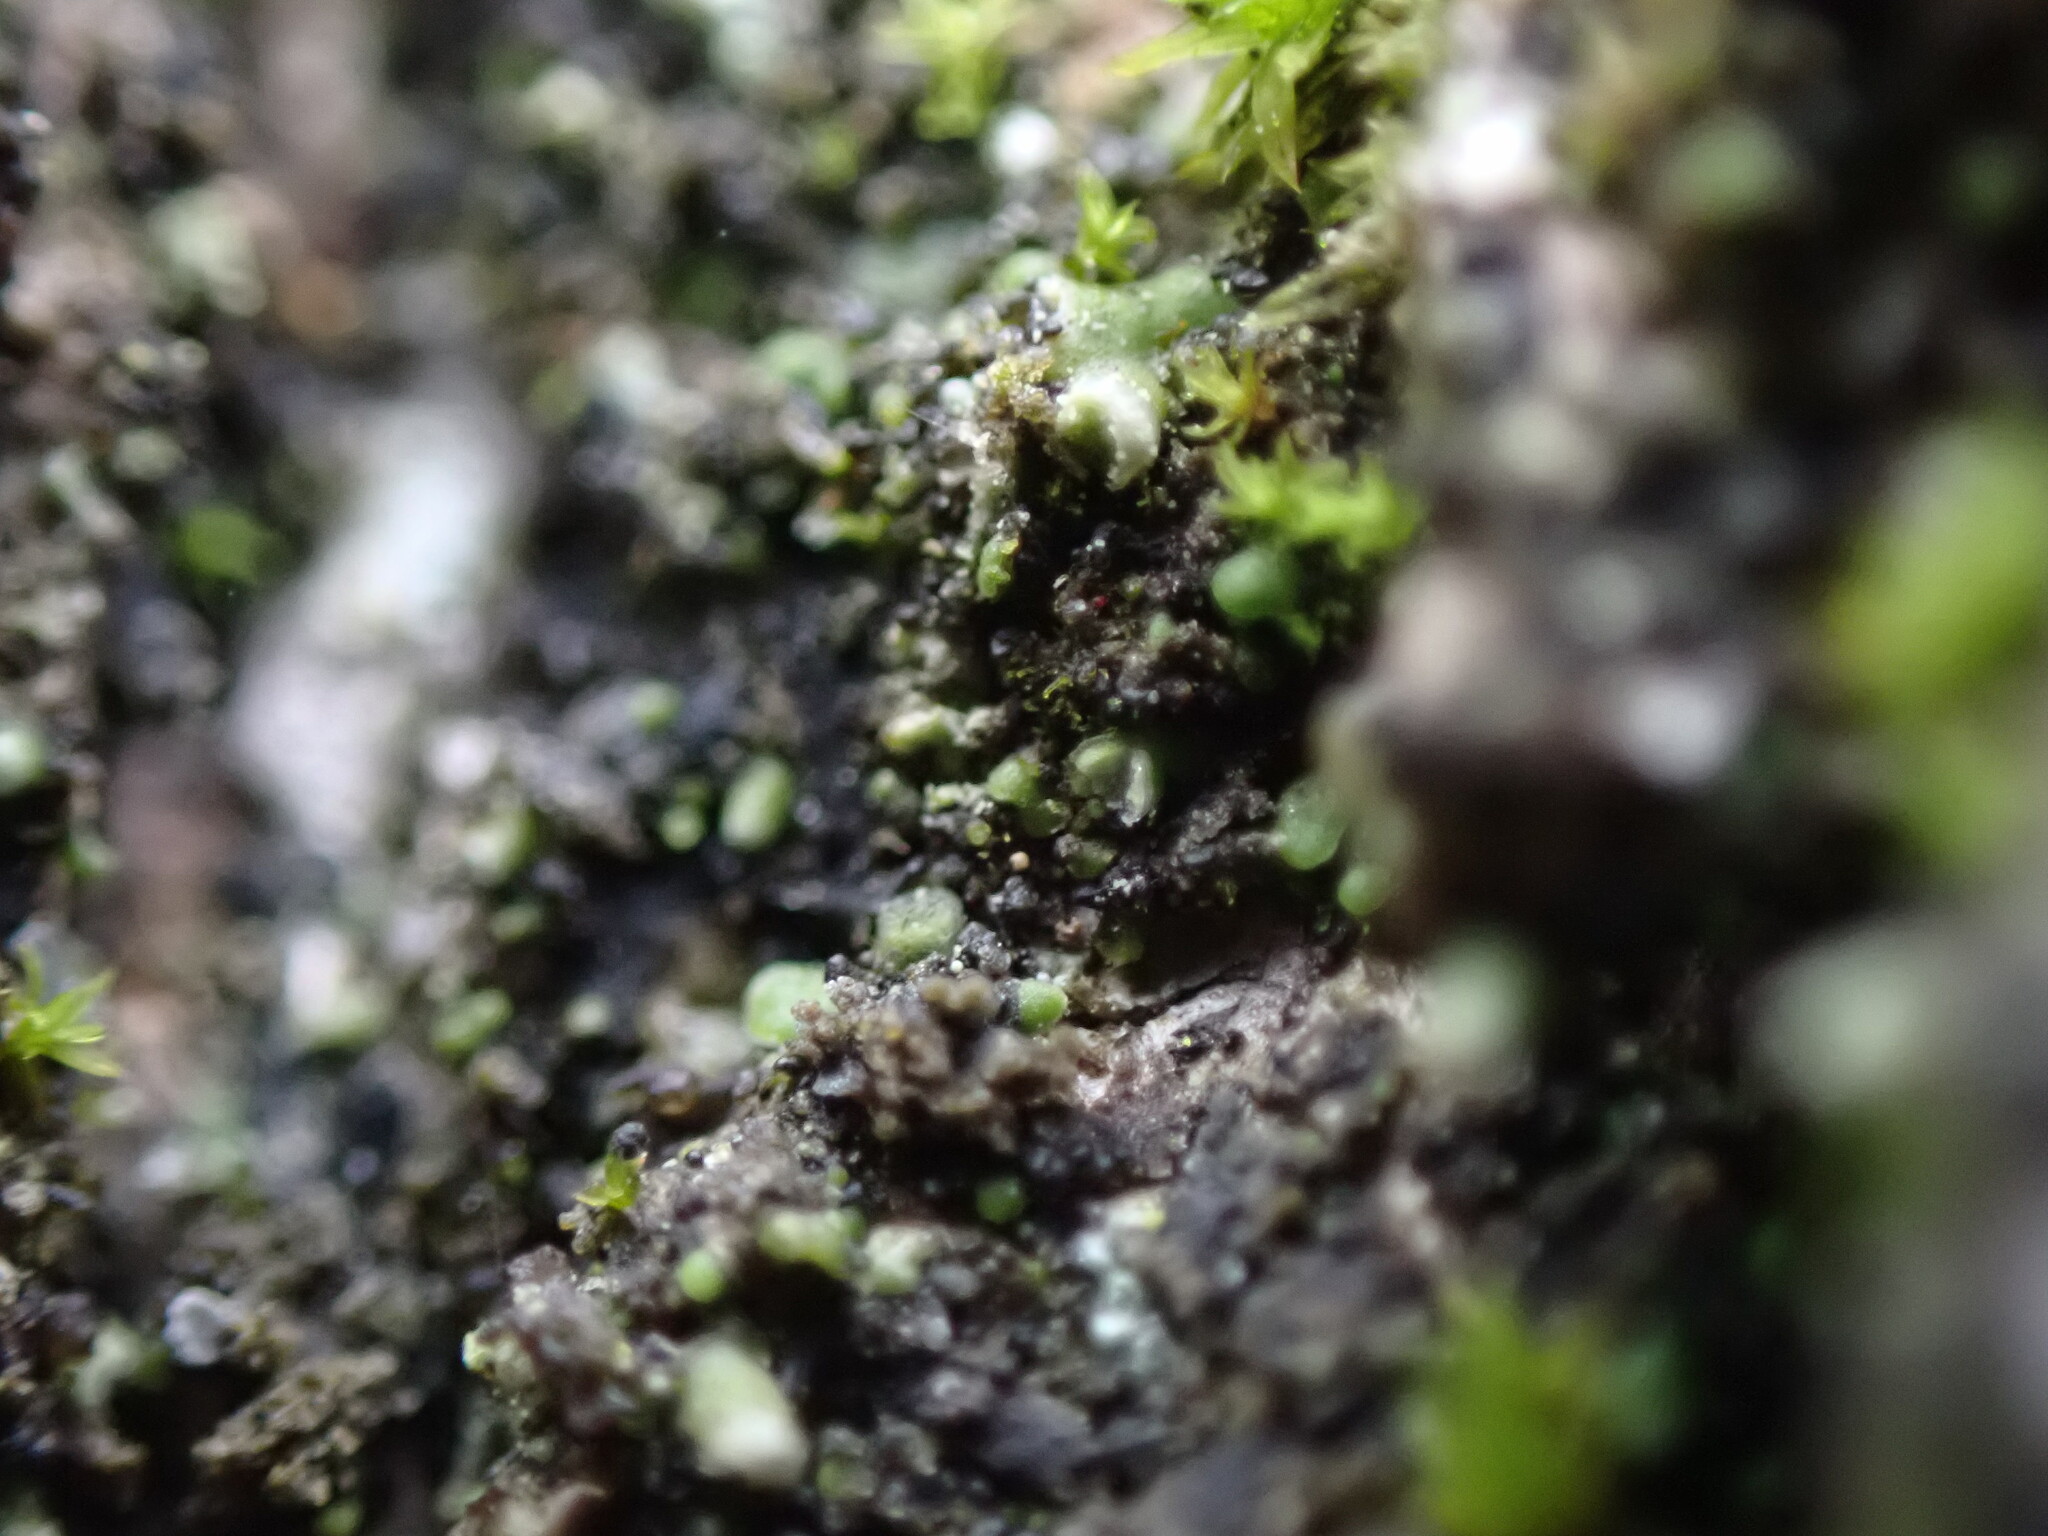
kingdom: Fungi
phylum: Ascomycota
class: Lecanoromycetes
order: Lecanorales
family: Ramalinaceae
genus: Waynea
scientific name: Waynea californica
